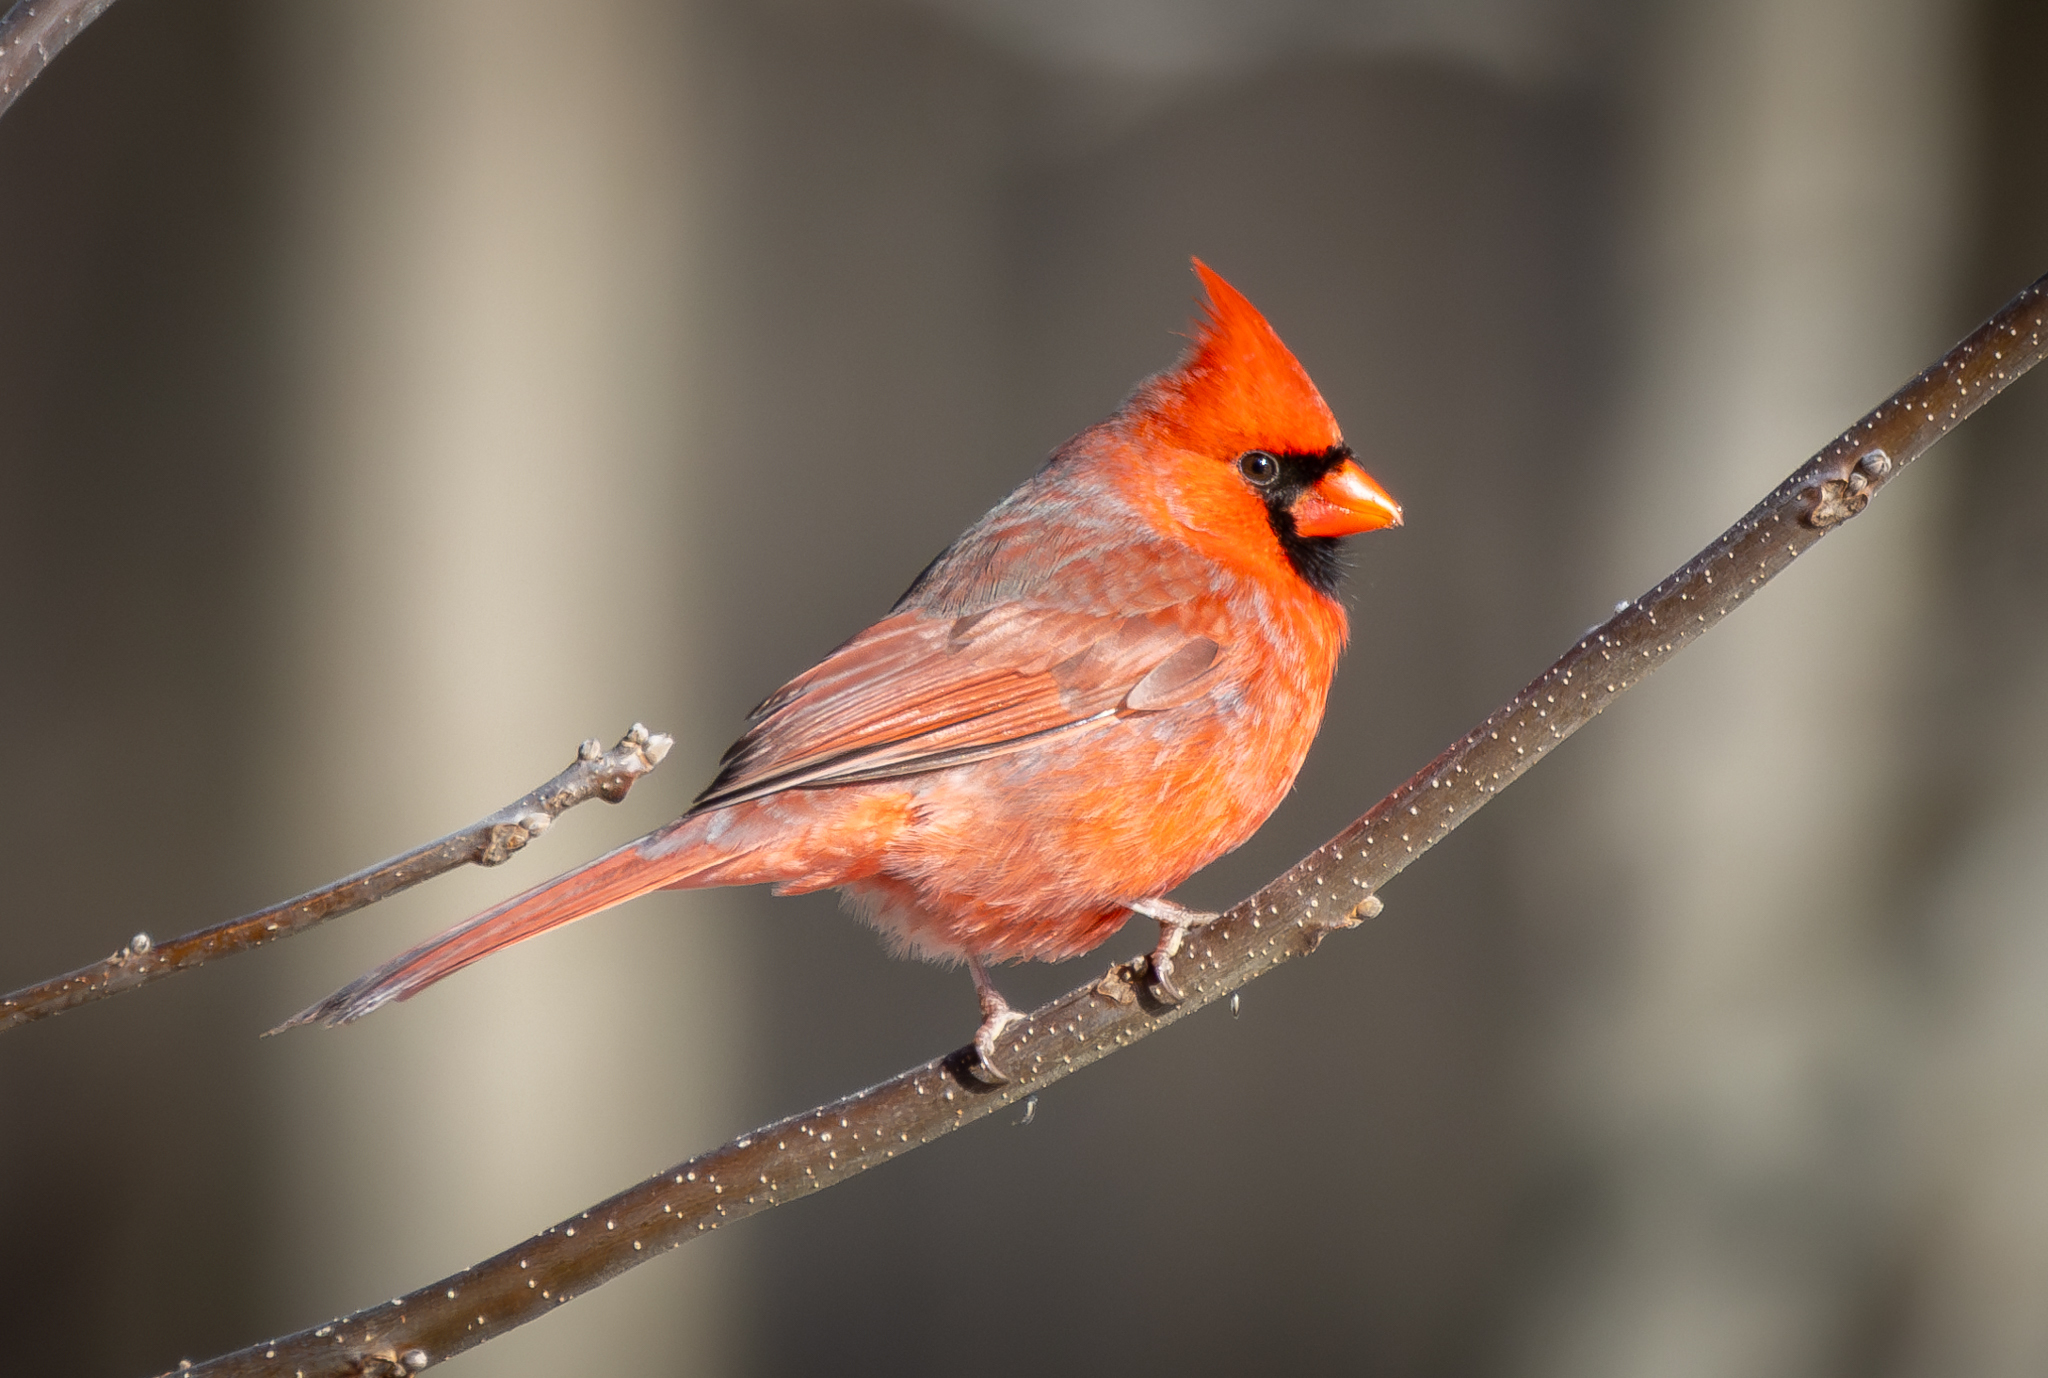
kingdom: Animalia
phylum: Chordata
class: Aves
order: Passeriformes
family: Cardinalidae
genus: Cardinalis
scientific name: Cardinalis cardinalis
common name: Northern cardinal
